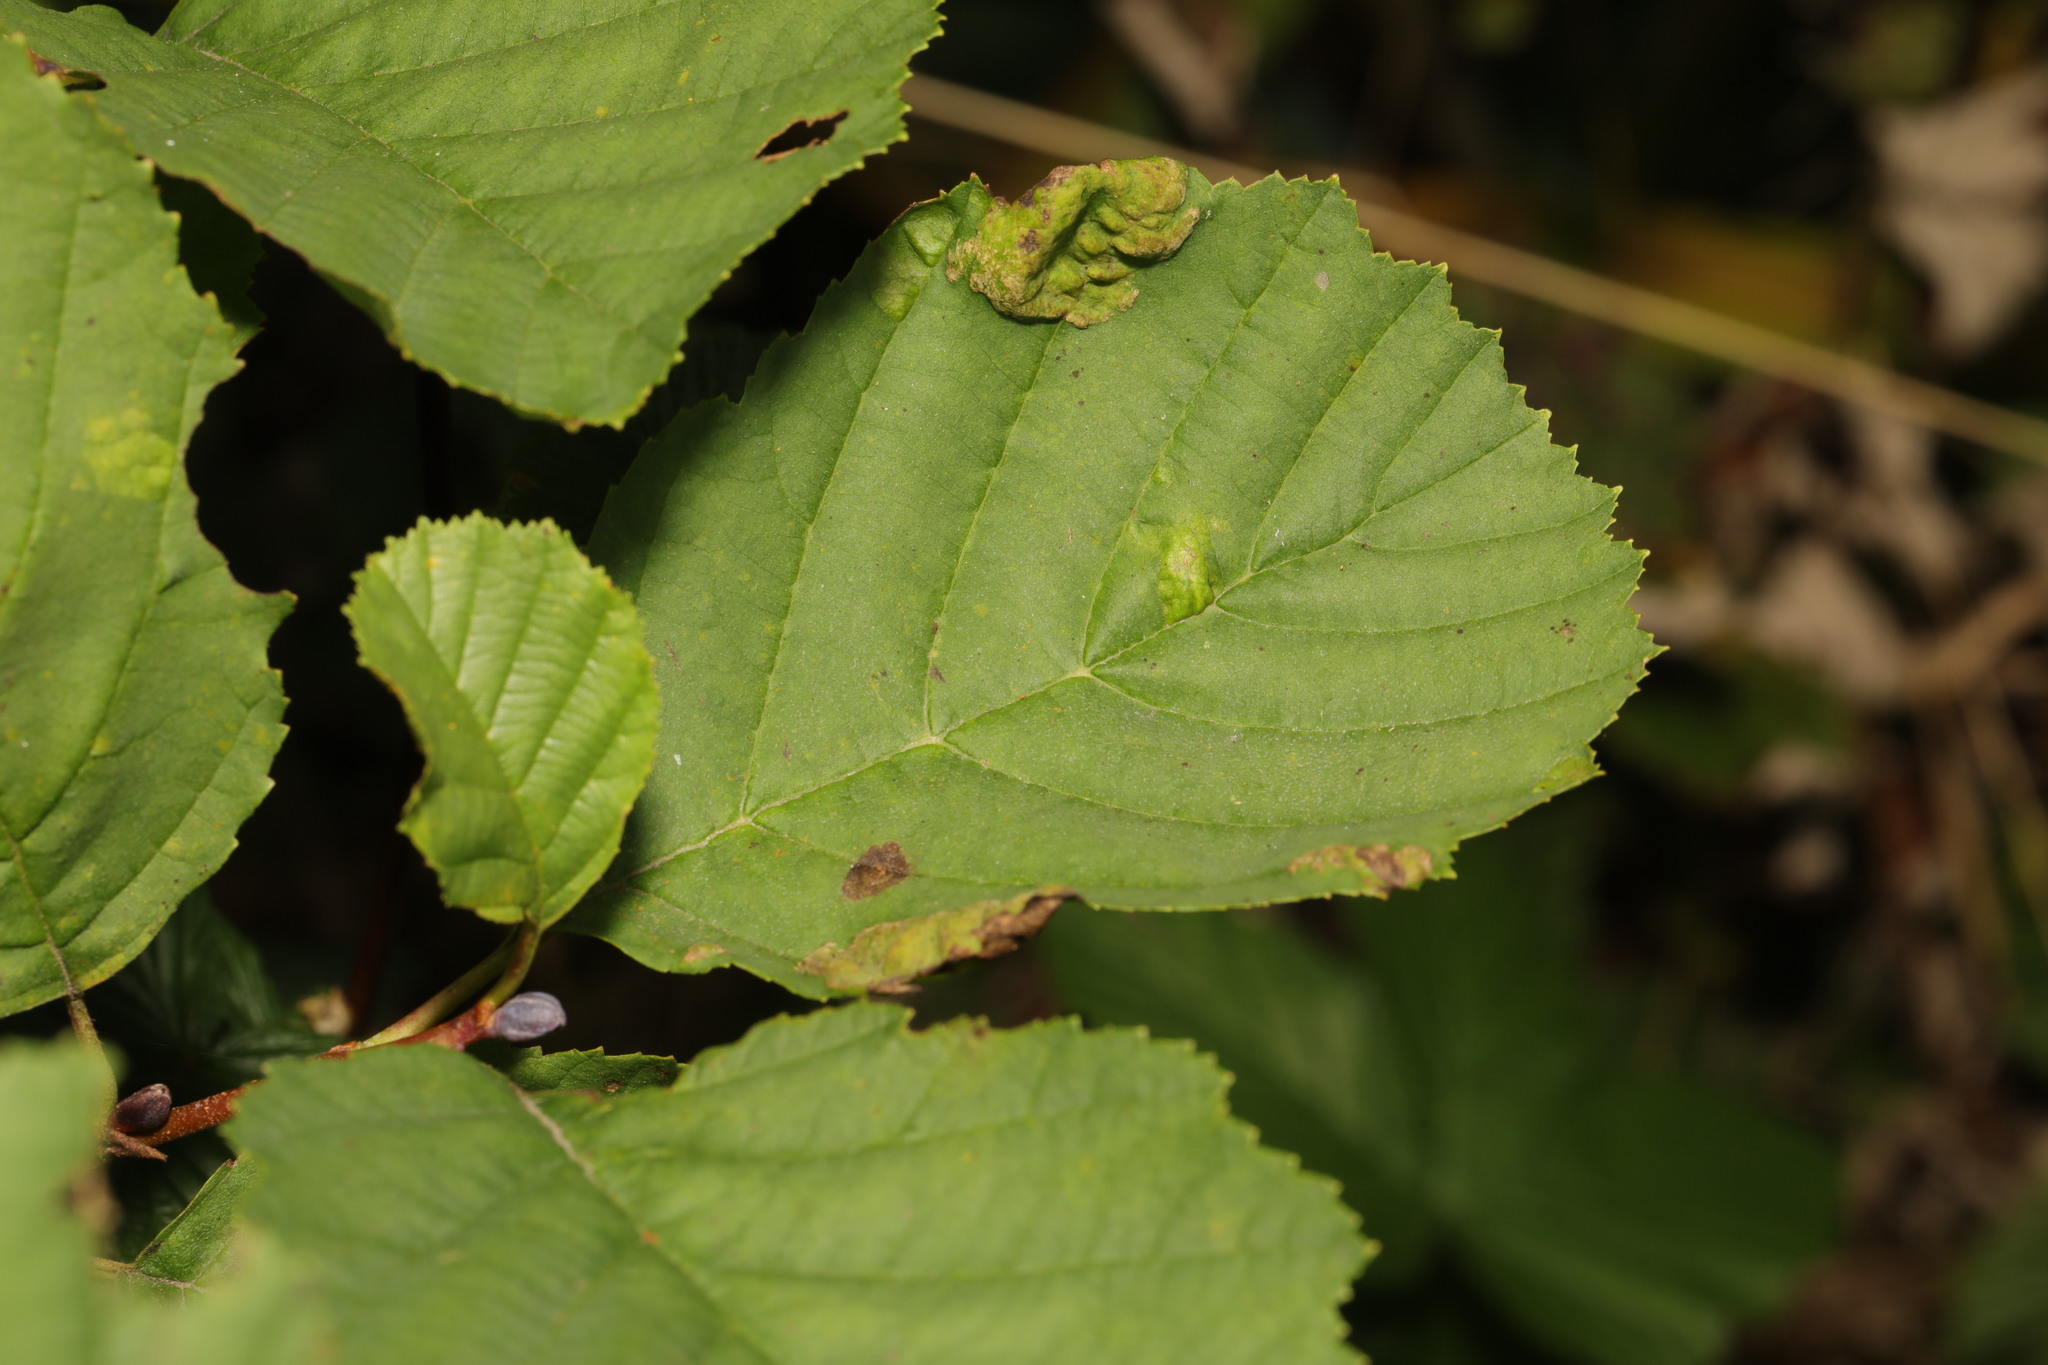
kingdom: Fungi
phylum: Ascomycota
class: Taphrinomycetes
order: Taphrinales
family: Taphrinaceae
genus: Taphrina
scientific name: Taphrina tosquinetii
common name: Alder wrinkle
